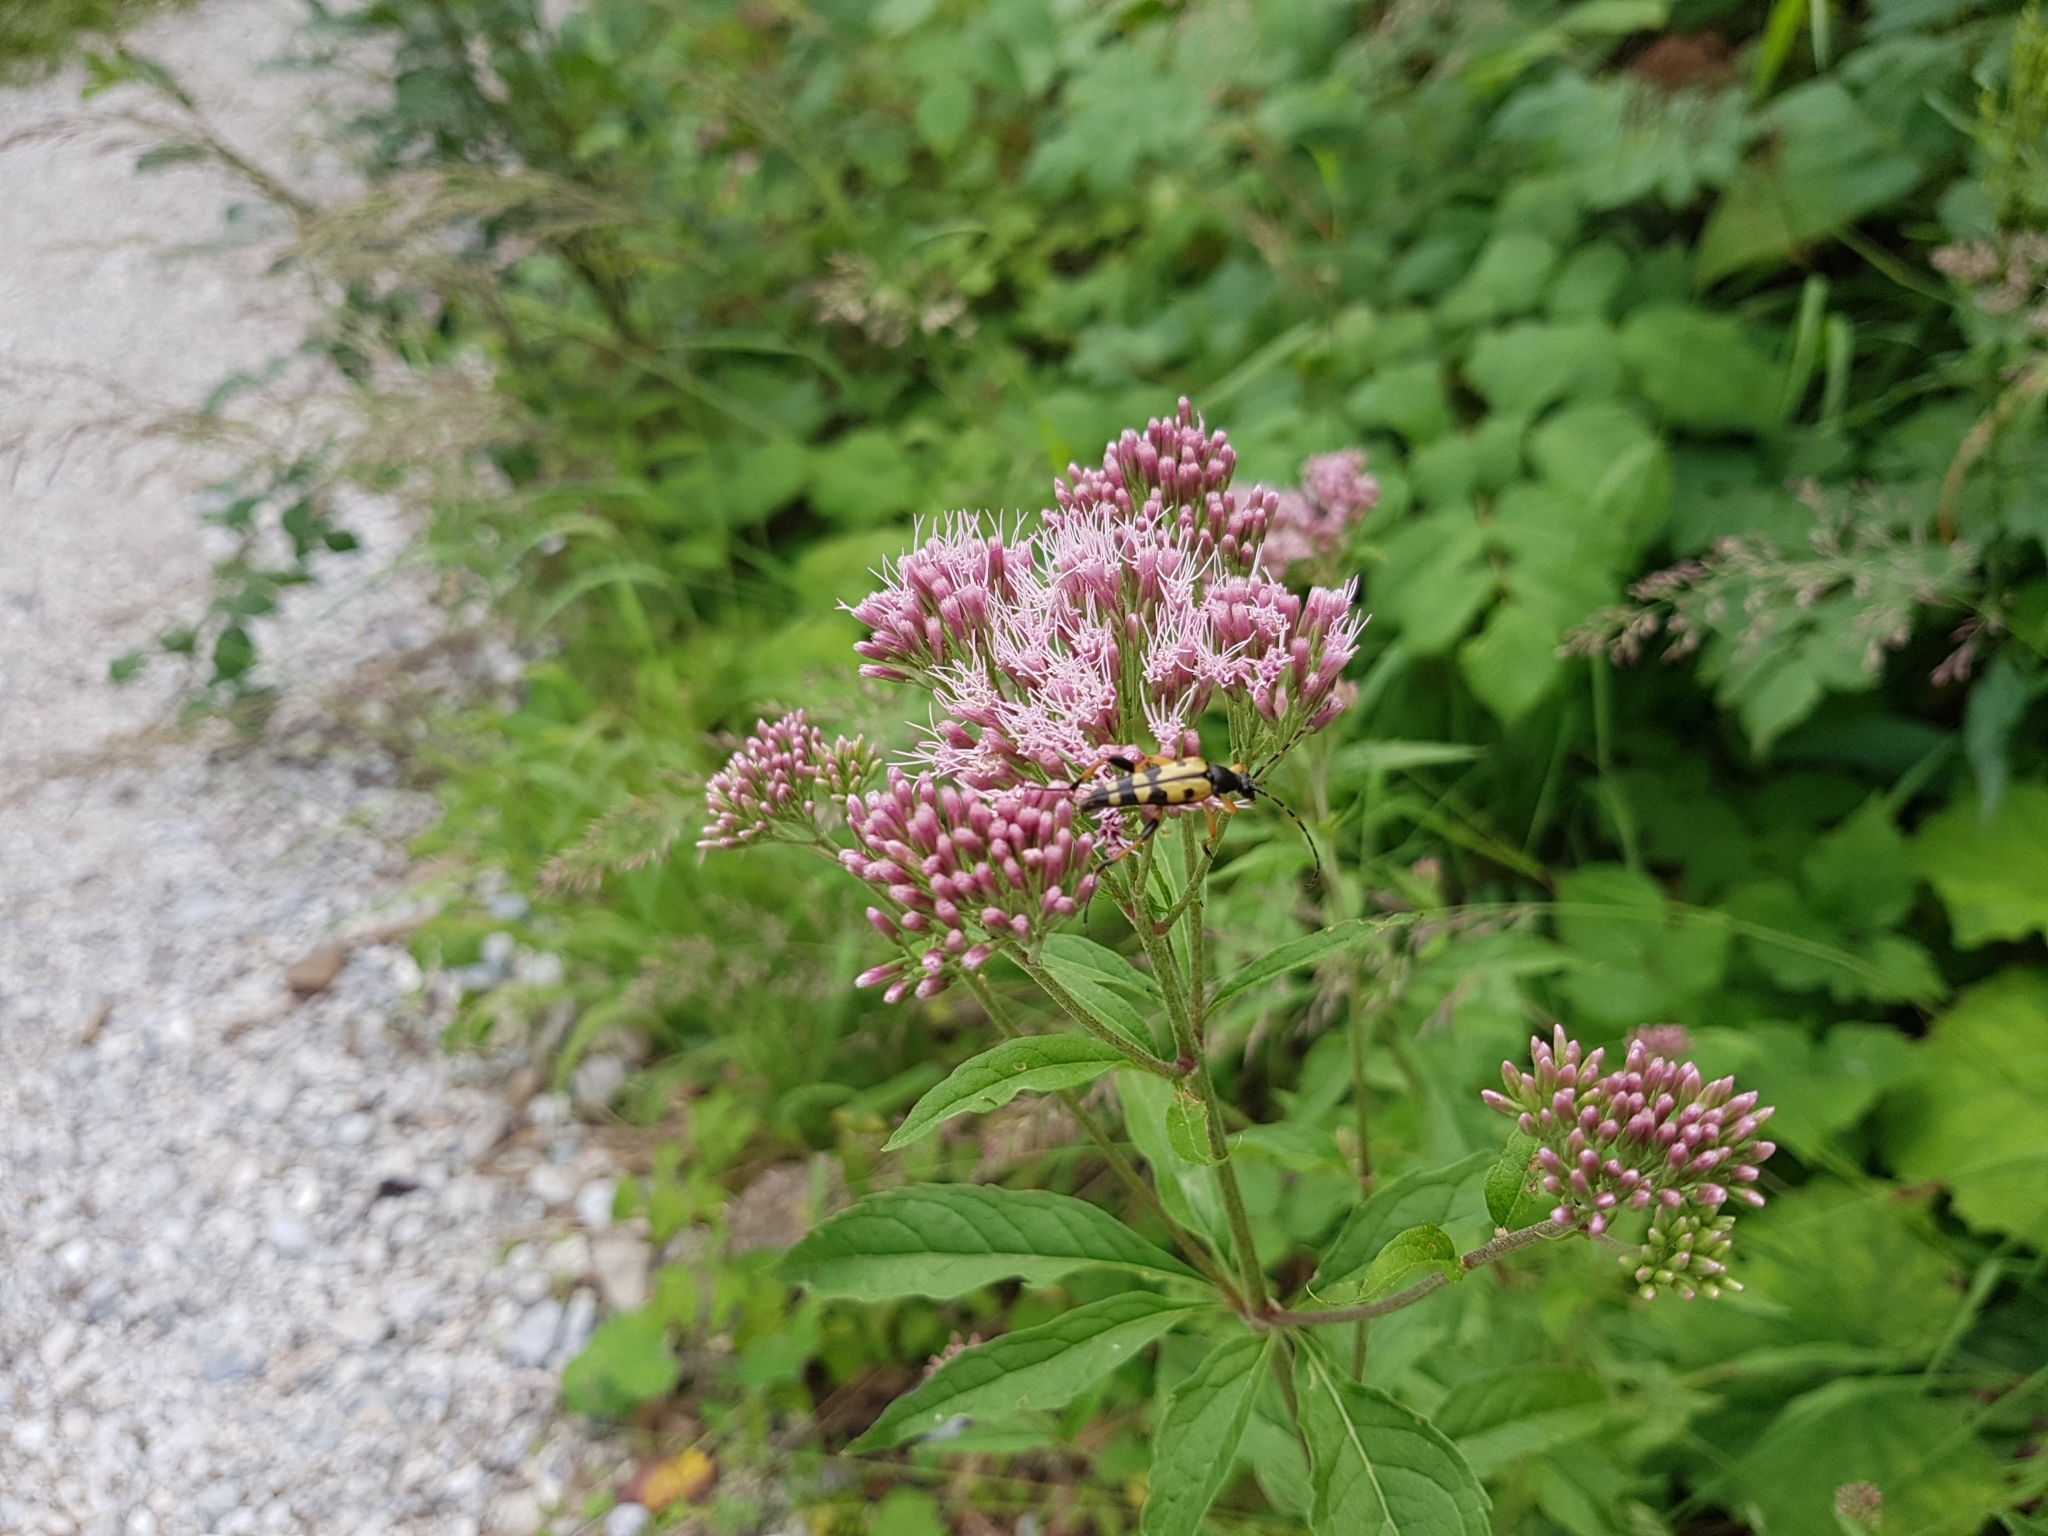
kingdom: Plantae
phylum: Tracheophyta
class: Magnoliopsida
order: Asterales
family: Asteraceae
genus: Eupatorium
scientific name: Eupatorium cannabinum
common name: Hemp-agrimony
